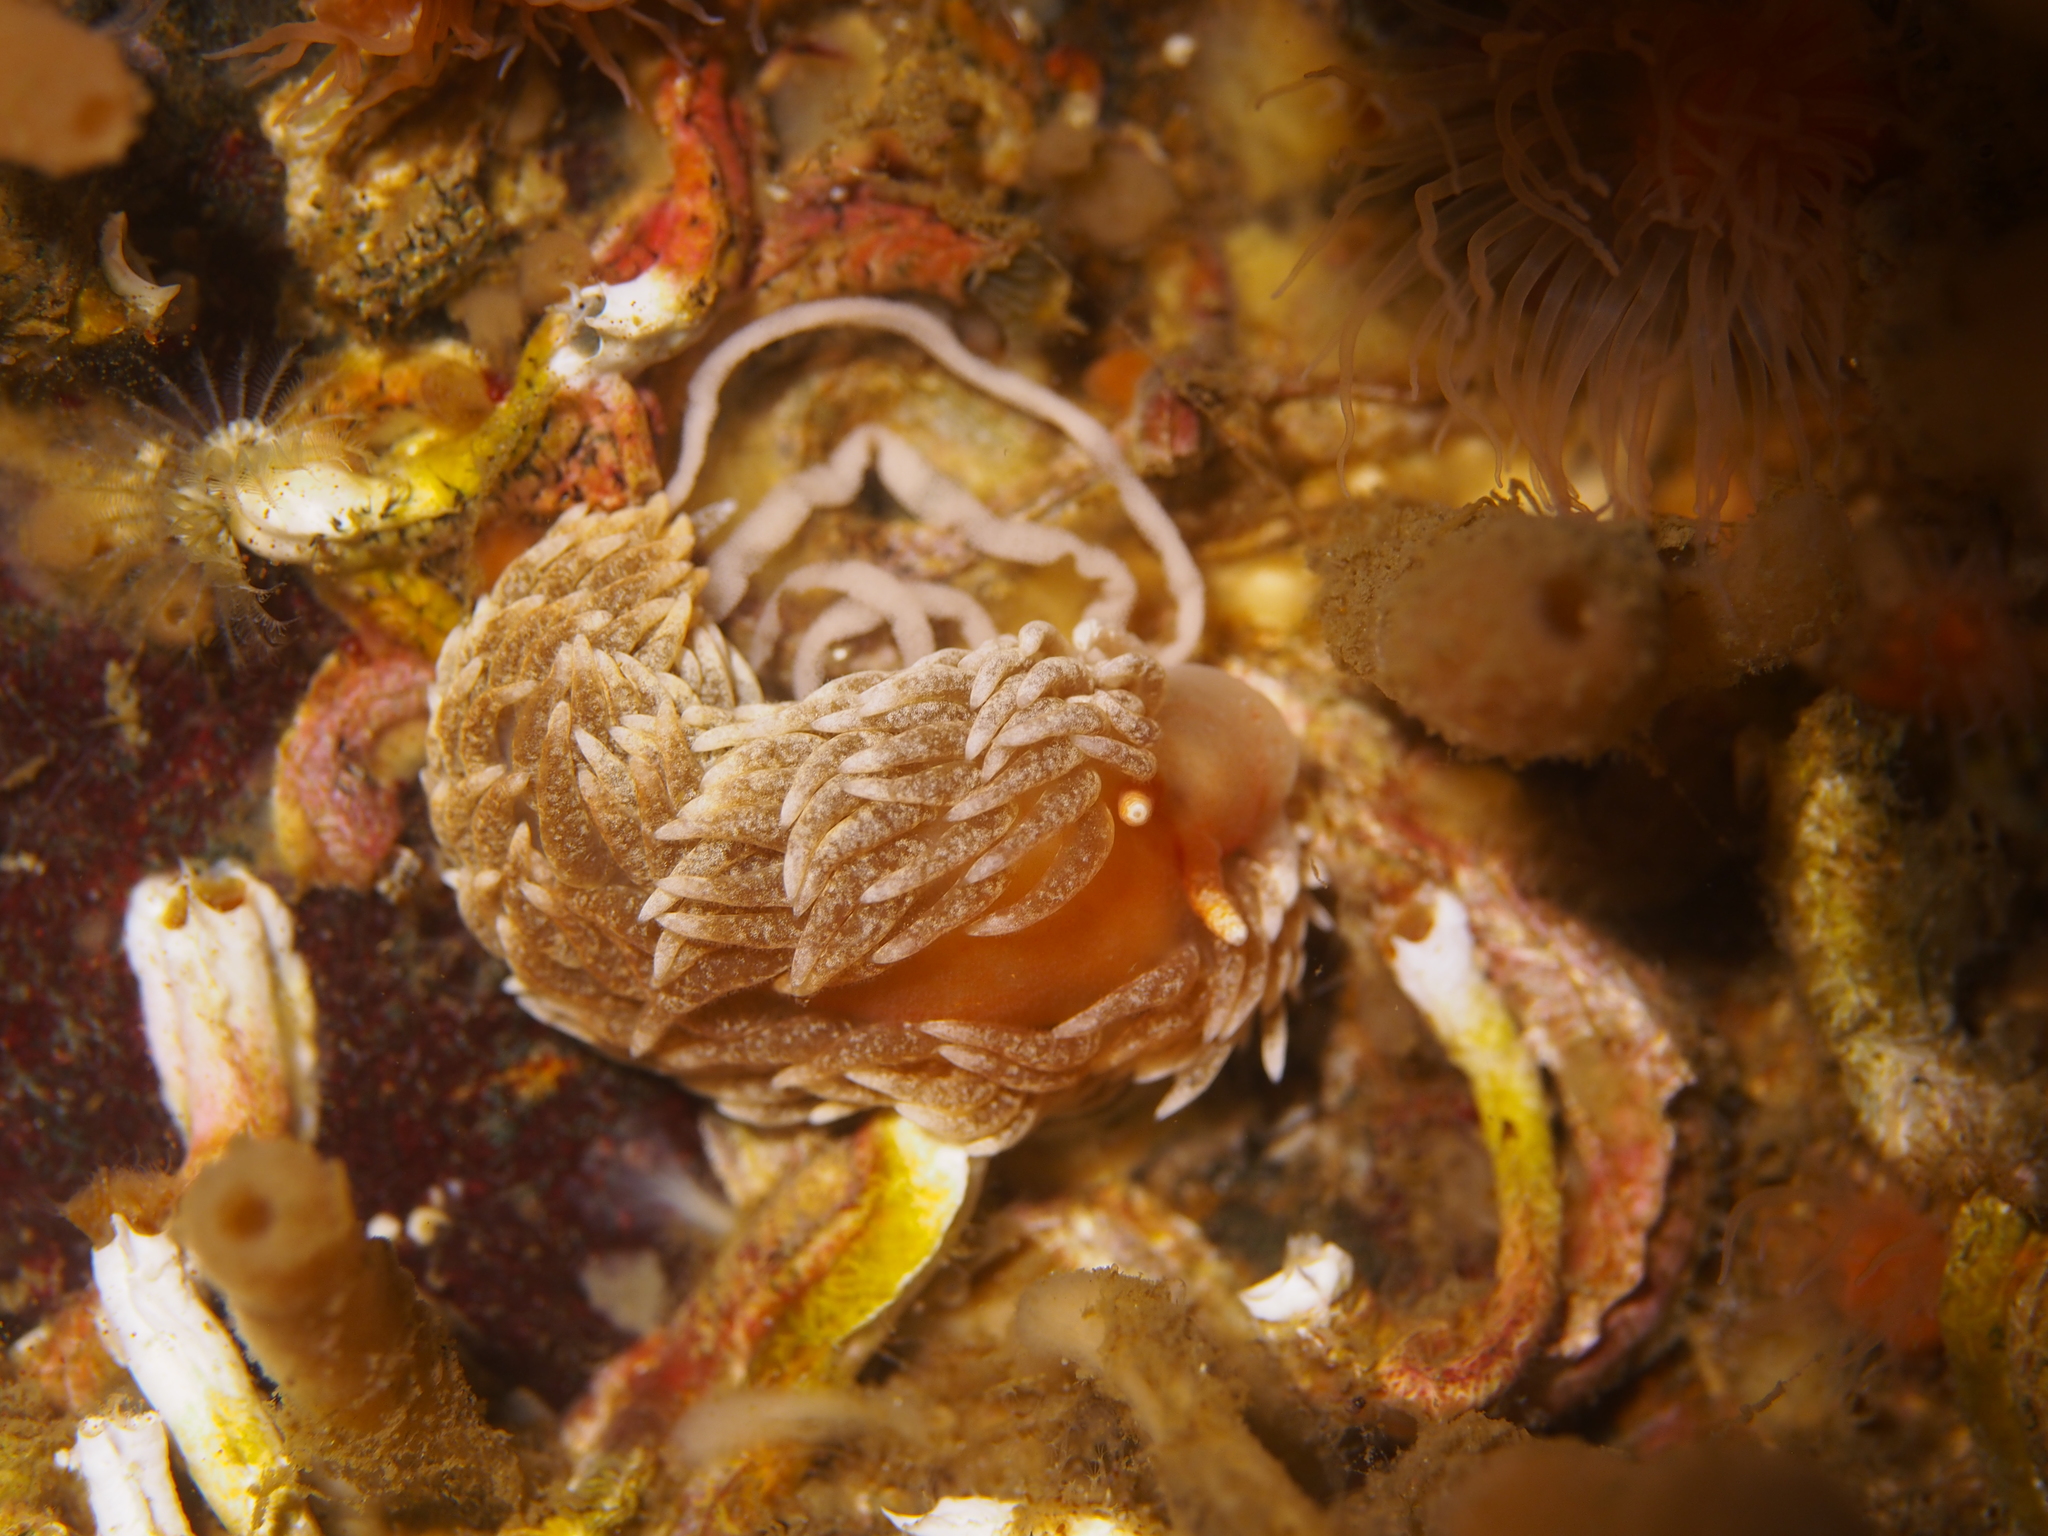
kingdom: Animalia
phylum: Mollusca
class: Gastropoda
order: Nudibranchia
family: Aeolidiidae
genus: Aeolidiella
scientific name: Aeolidiella glauca
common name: Orange-brown aeolid
